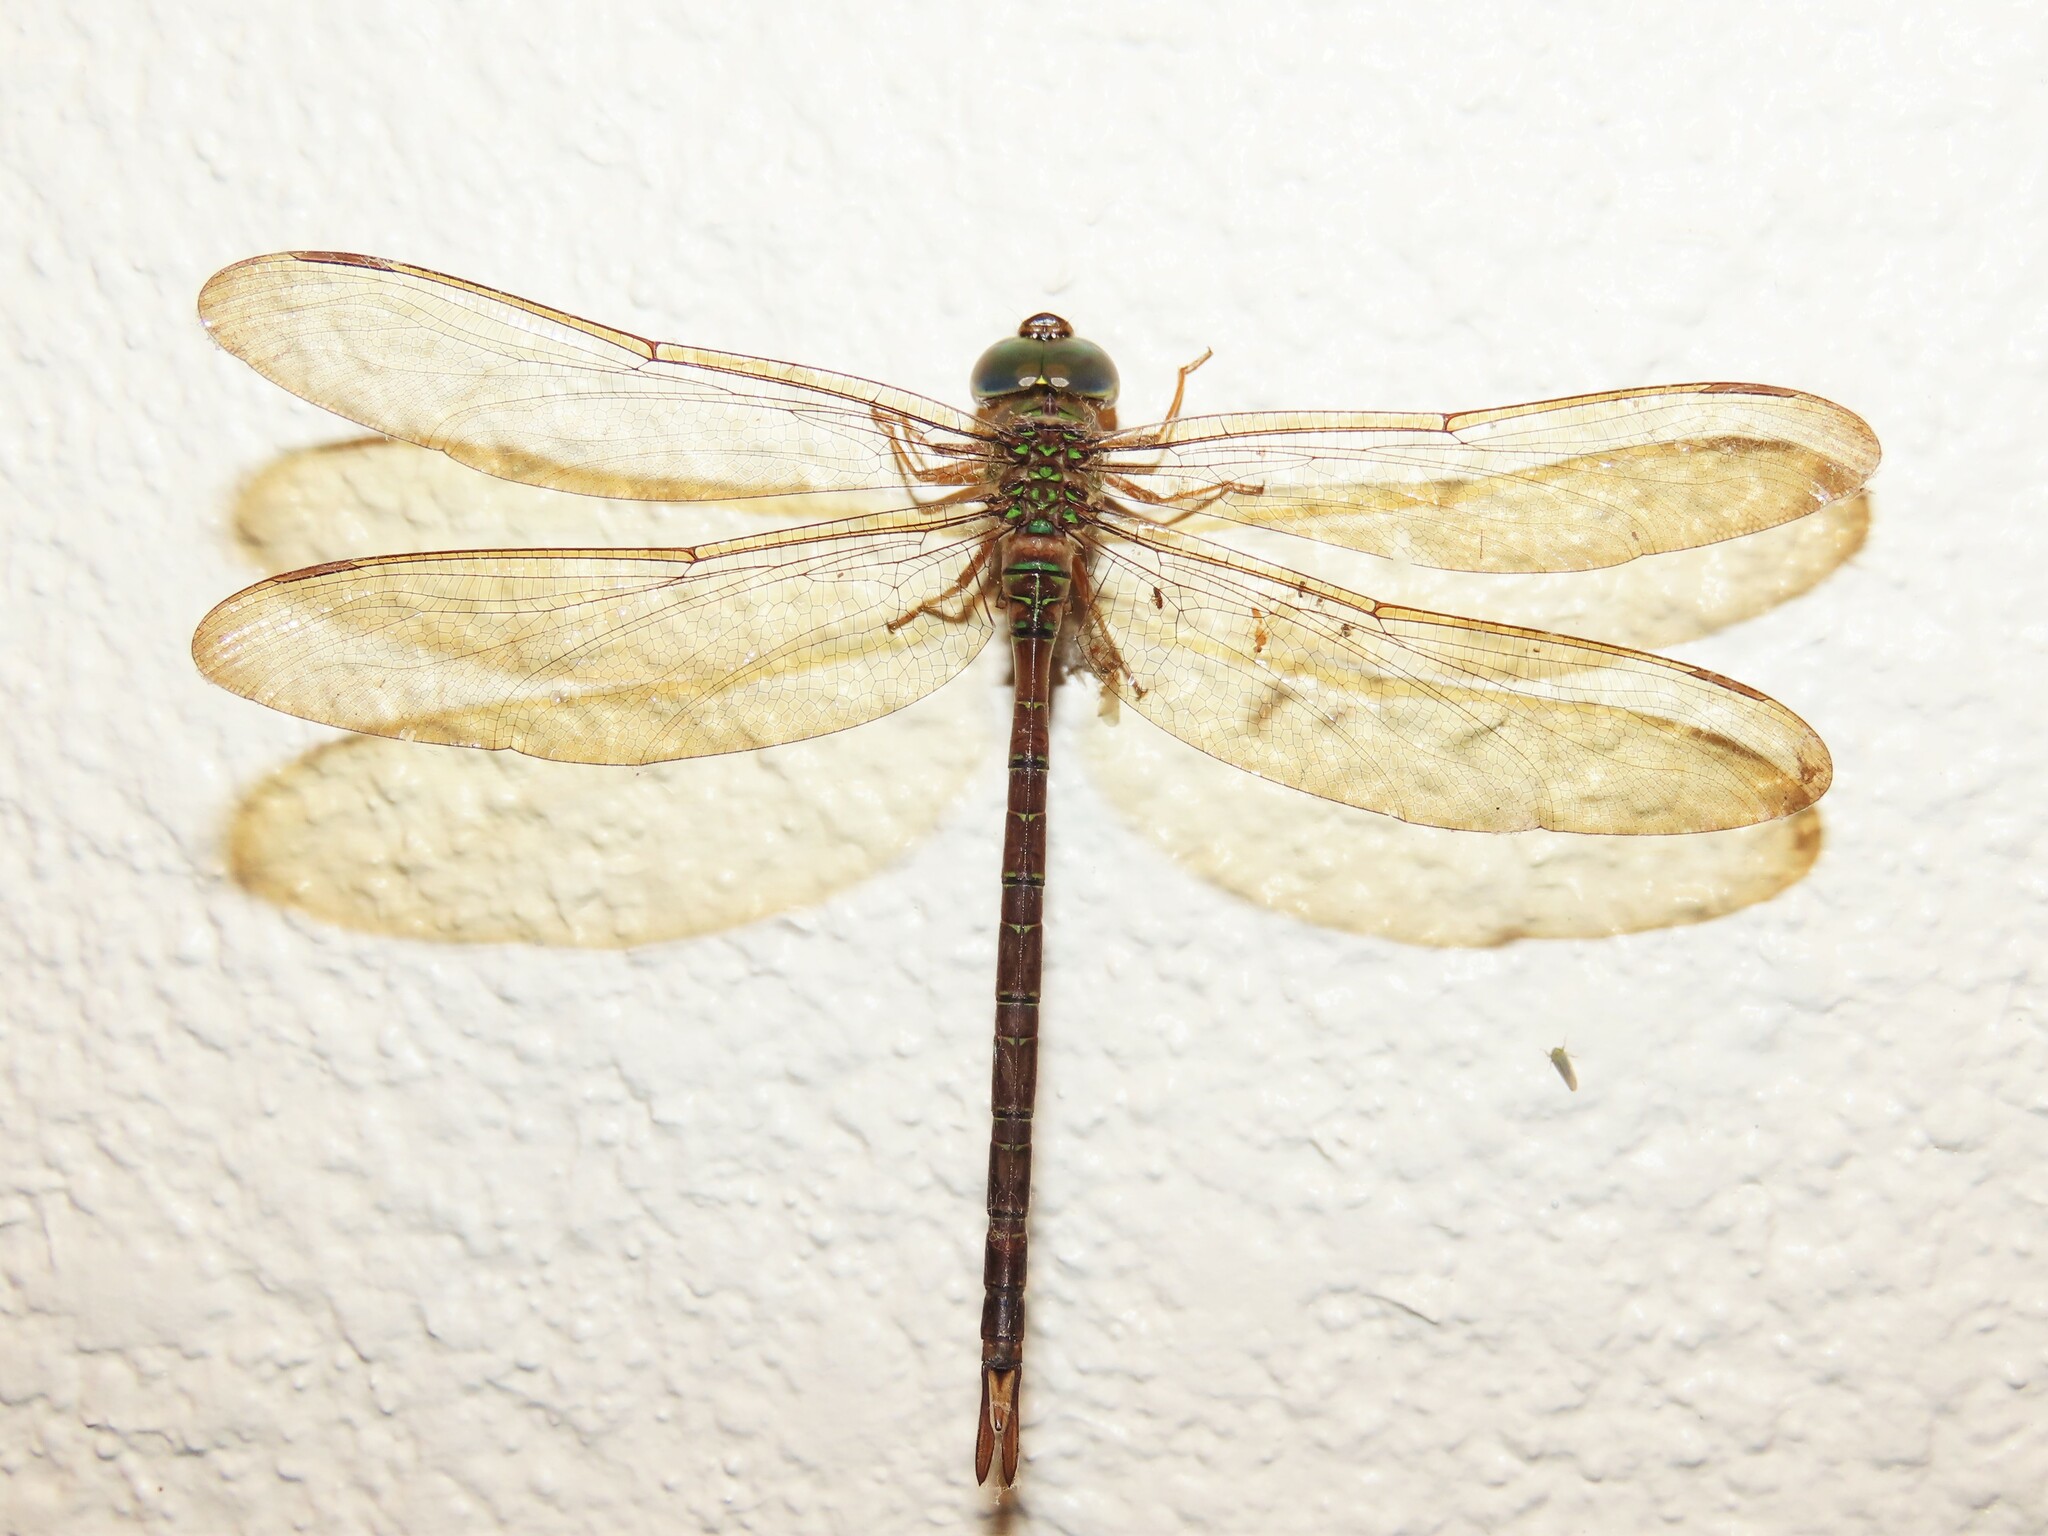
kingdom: Animalia
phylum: Arthropoda
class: Insecta
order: Odonata
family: Aeshnidae
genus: Gynacantha
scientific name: Gynacantha nervosa
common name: Twilight darner
